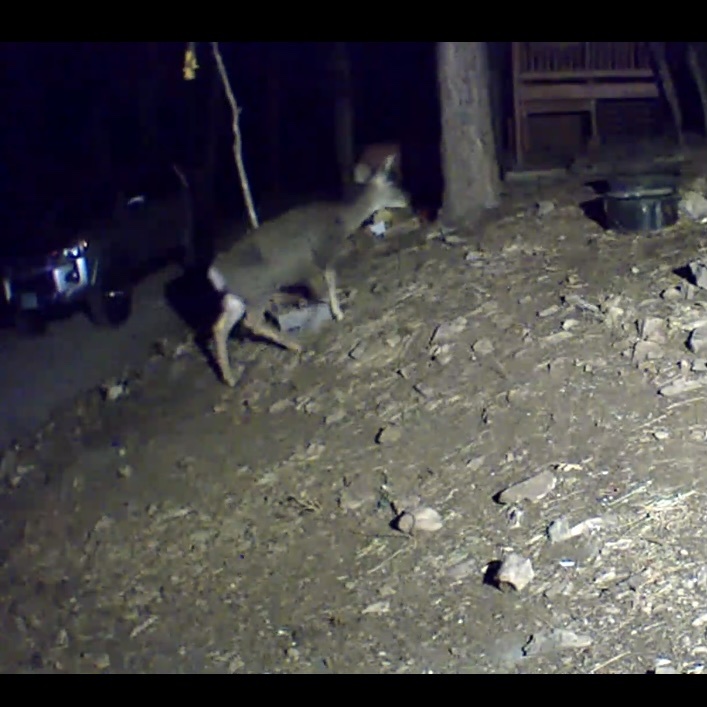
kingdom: Animalia
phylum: Chordata
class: Mammalia
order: Artiodactyla
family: Cervidae
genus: Odocoileus
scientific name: Odocoileus hemionus
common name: Mule deer
